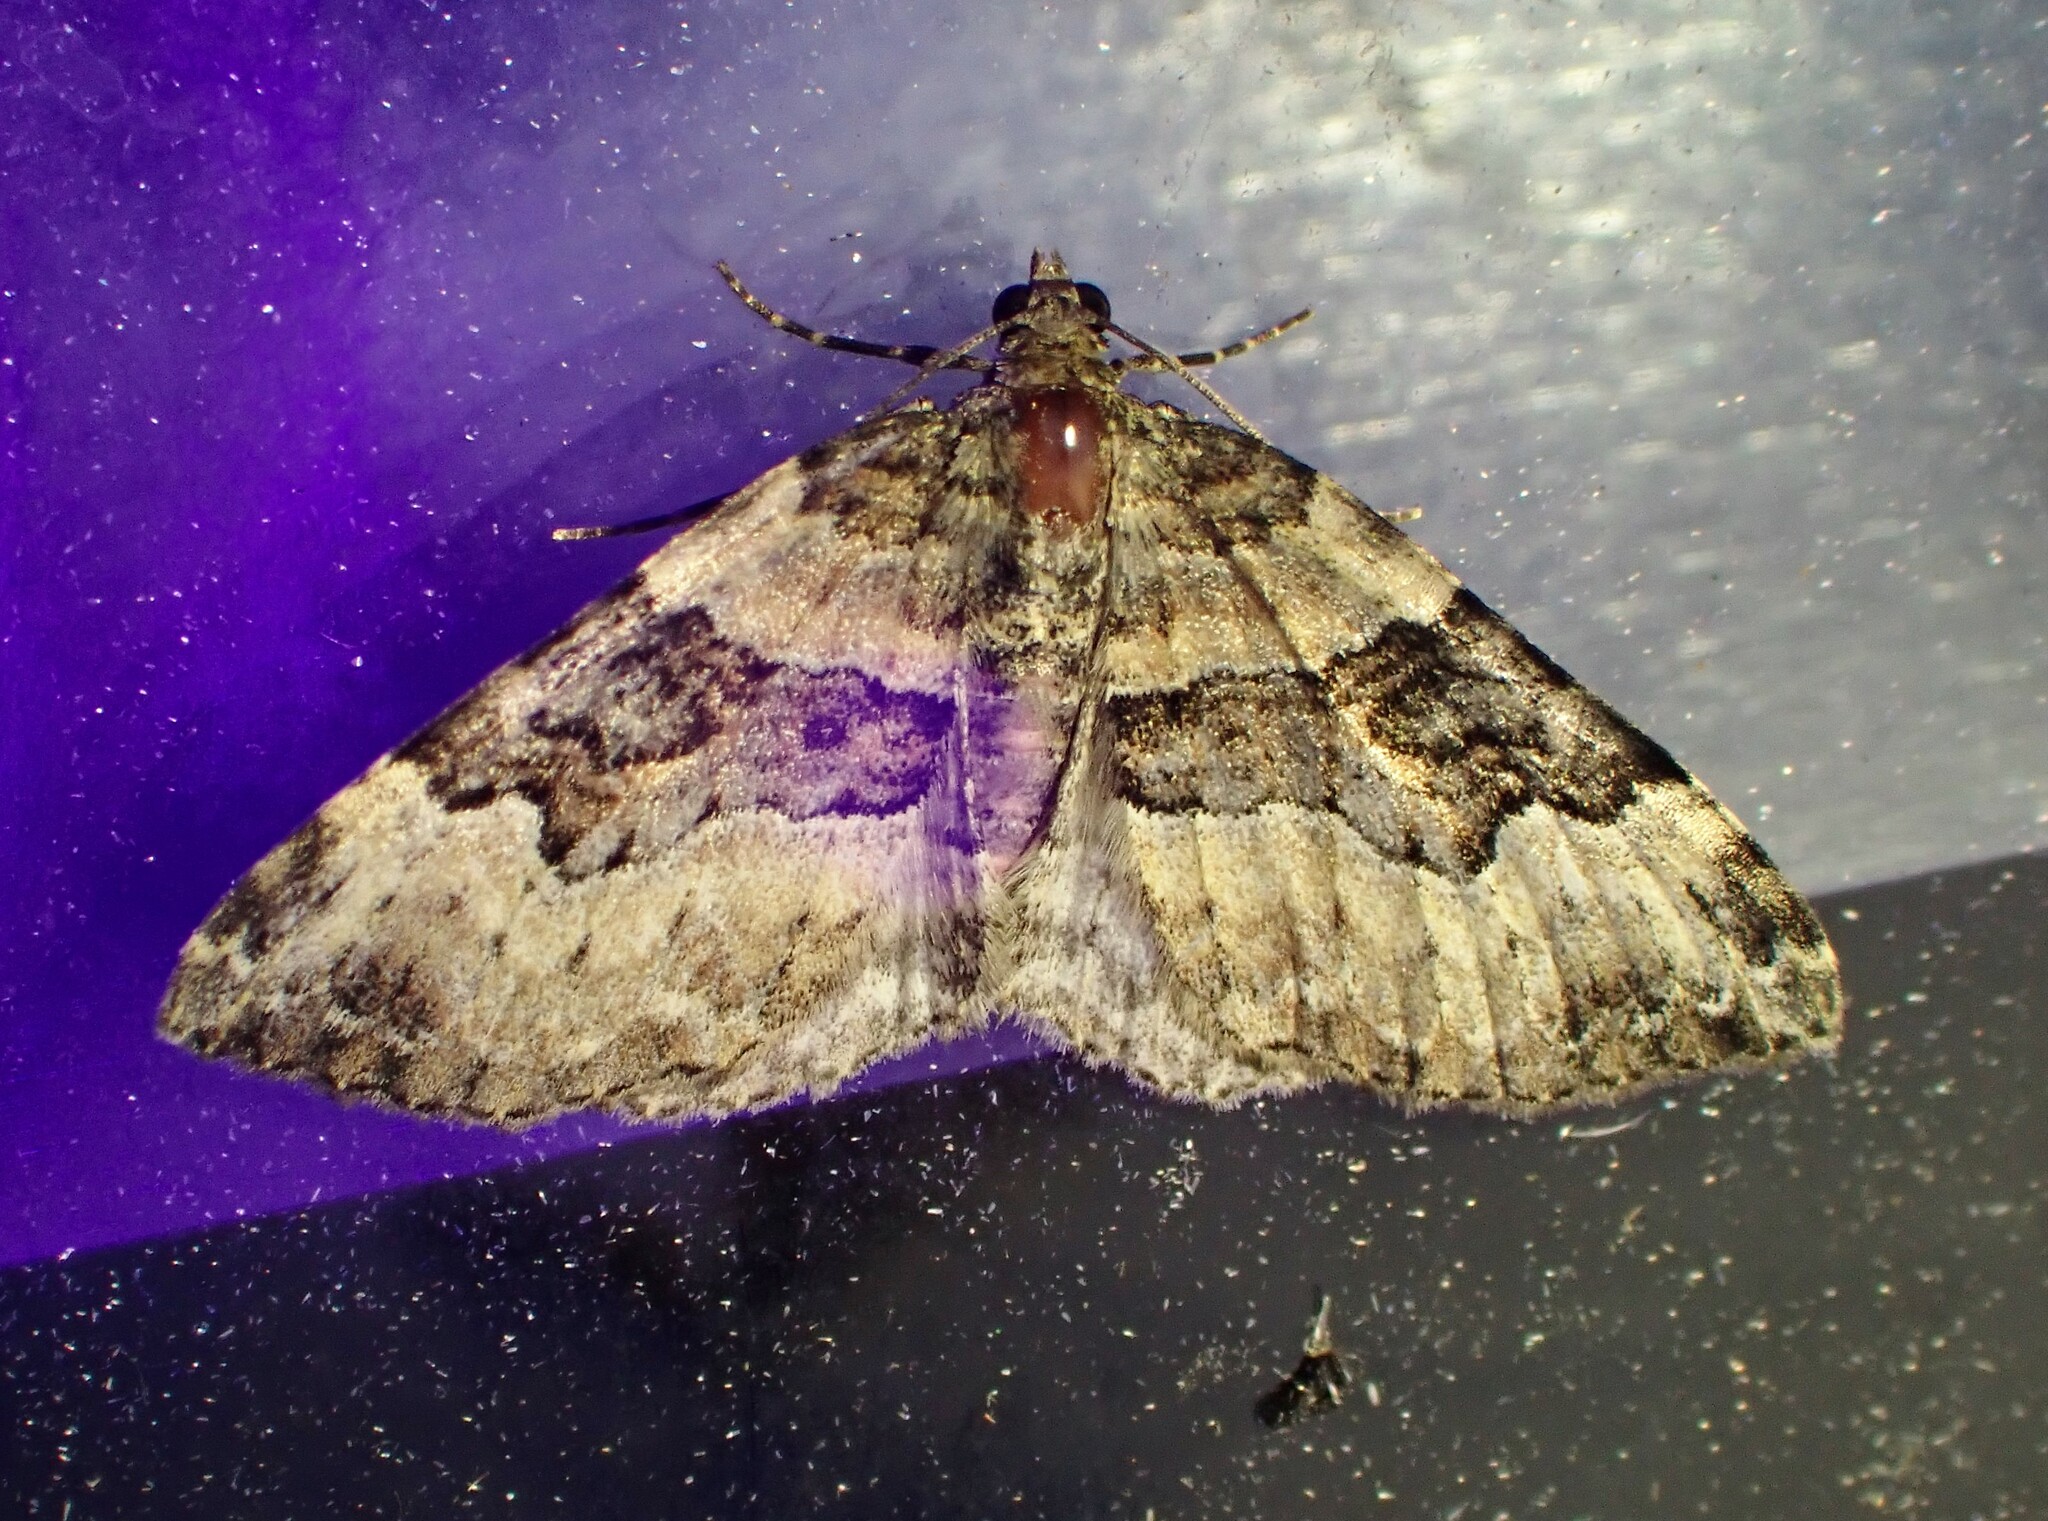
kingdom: Animalia
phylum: Arthropoda
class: Insecta
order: Lepidoptera
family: Geometridae
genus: Xanthorhoe
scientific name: Xanthorhoe lacustrata
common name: Toothed brown carpet
